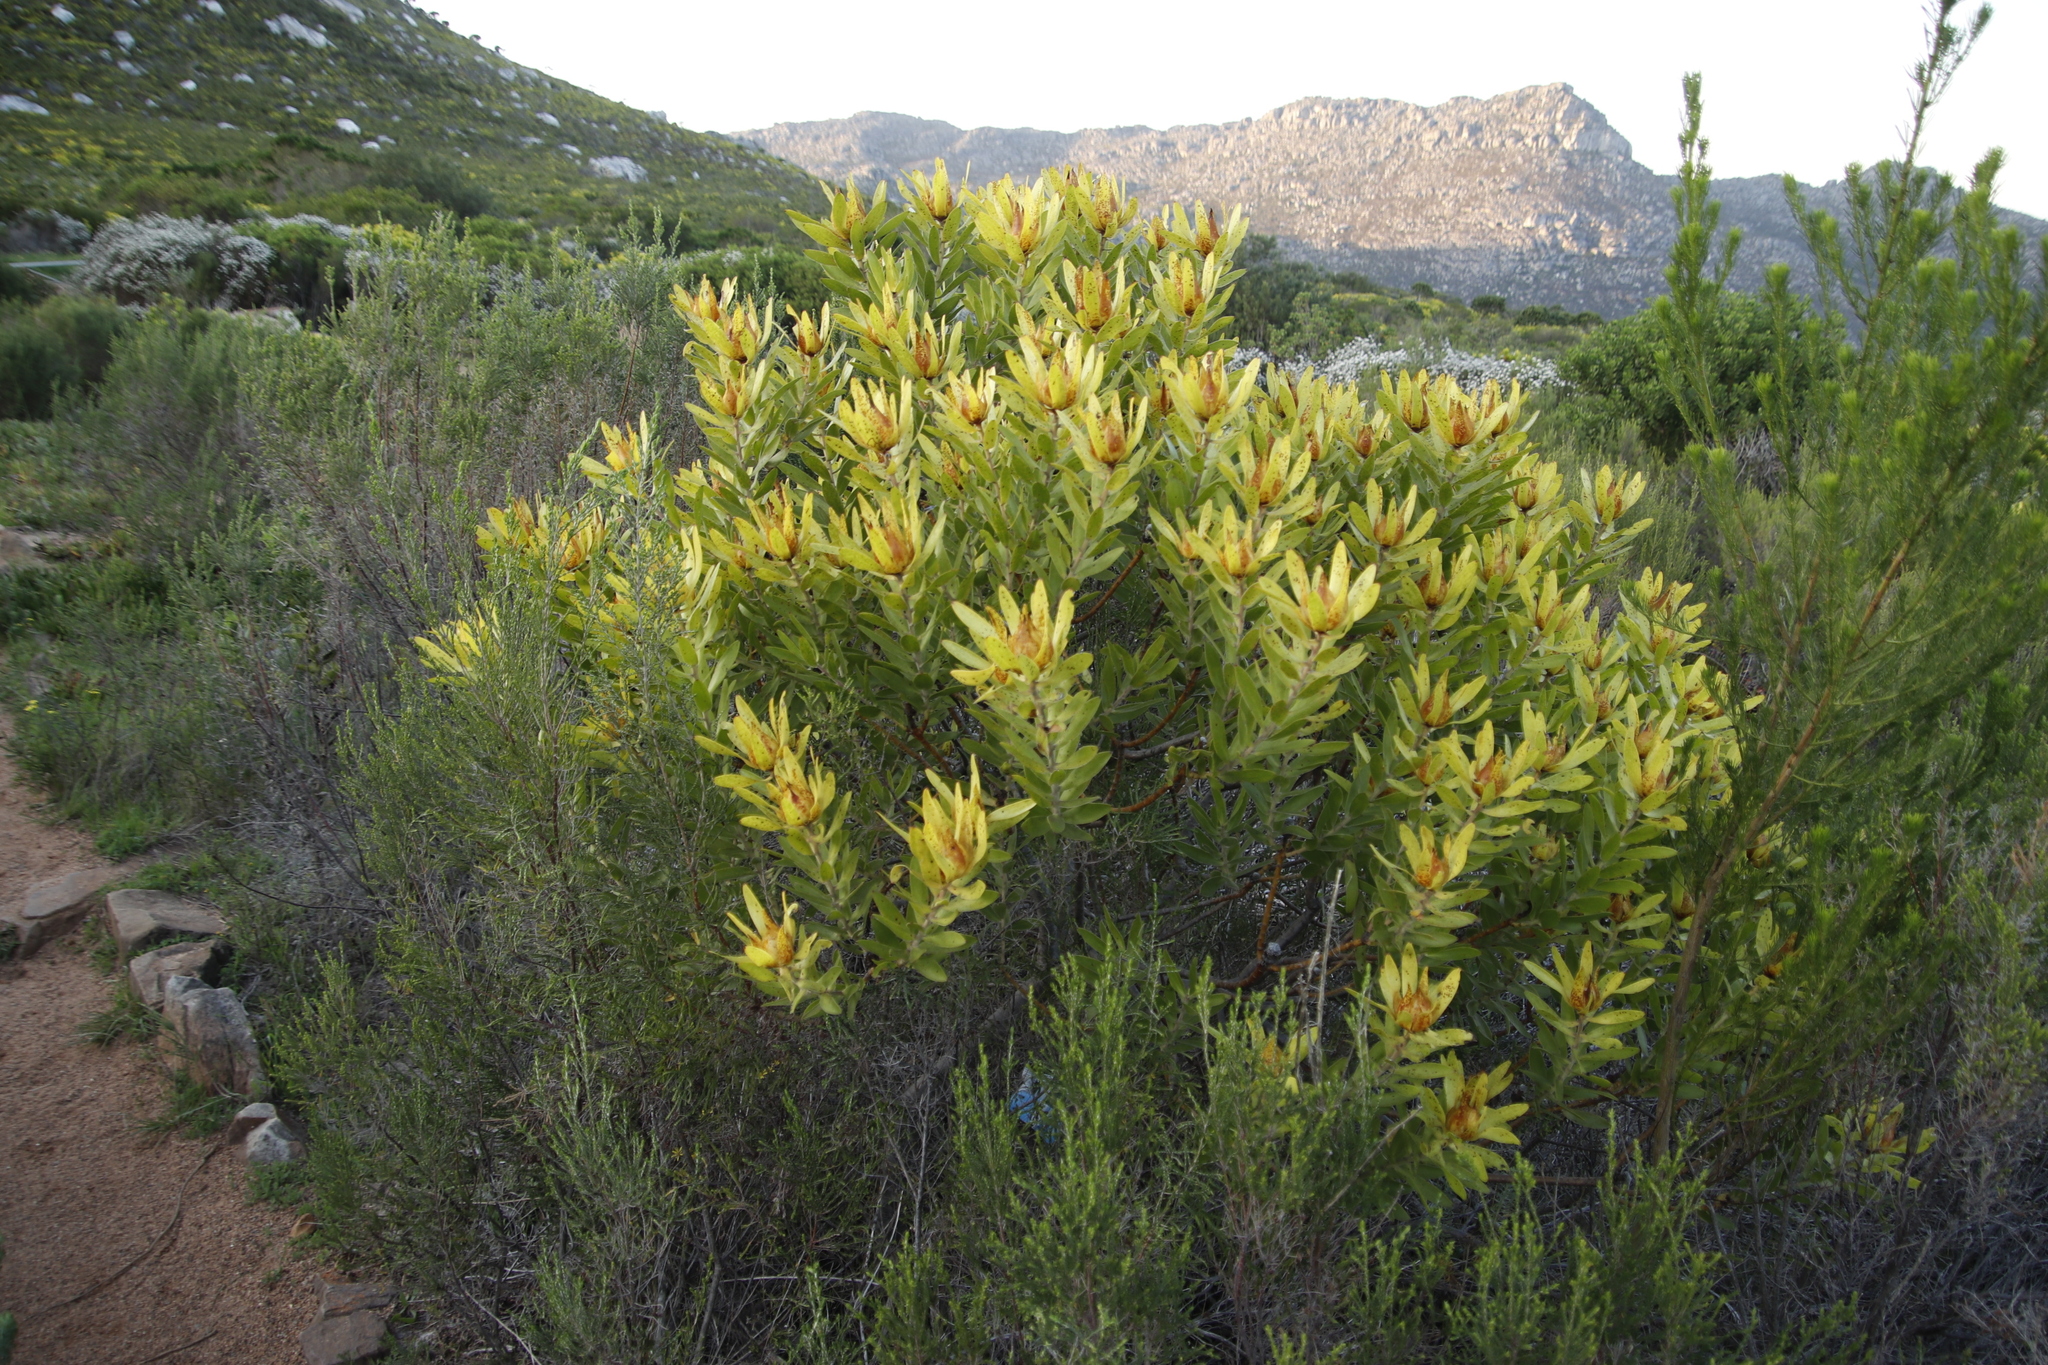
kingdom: Plantae
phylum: Tracheophyta
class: Magnoliopsida
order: Proteales
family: Proteaceae
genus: Leucadendron
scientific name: Leucadendron laureolum
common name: Golden sunshinebush
